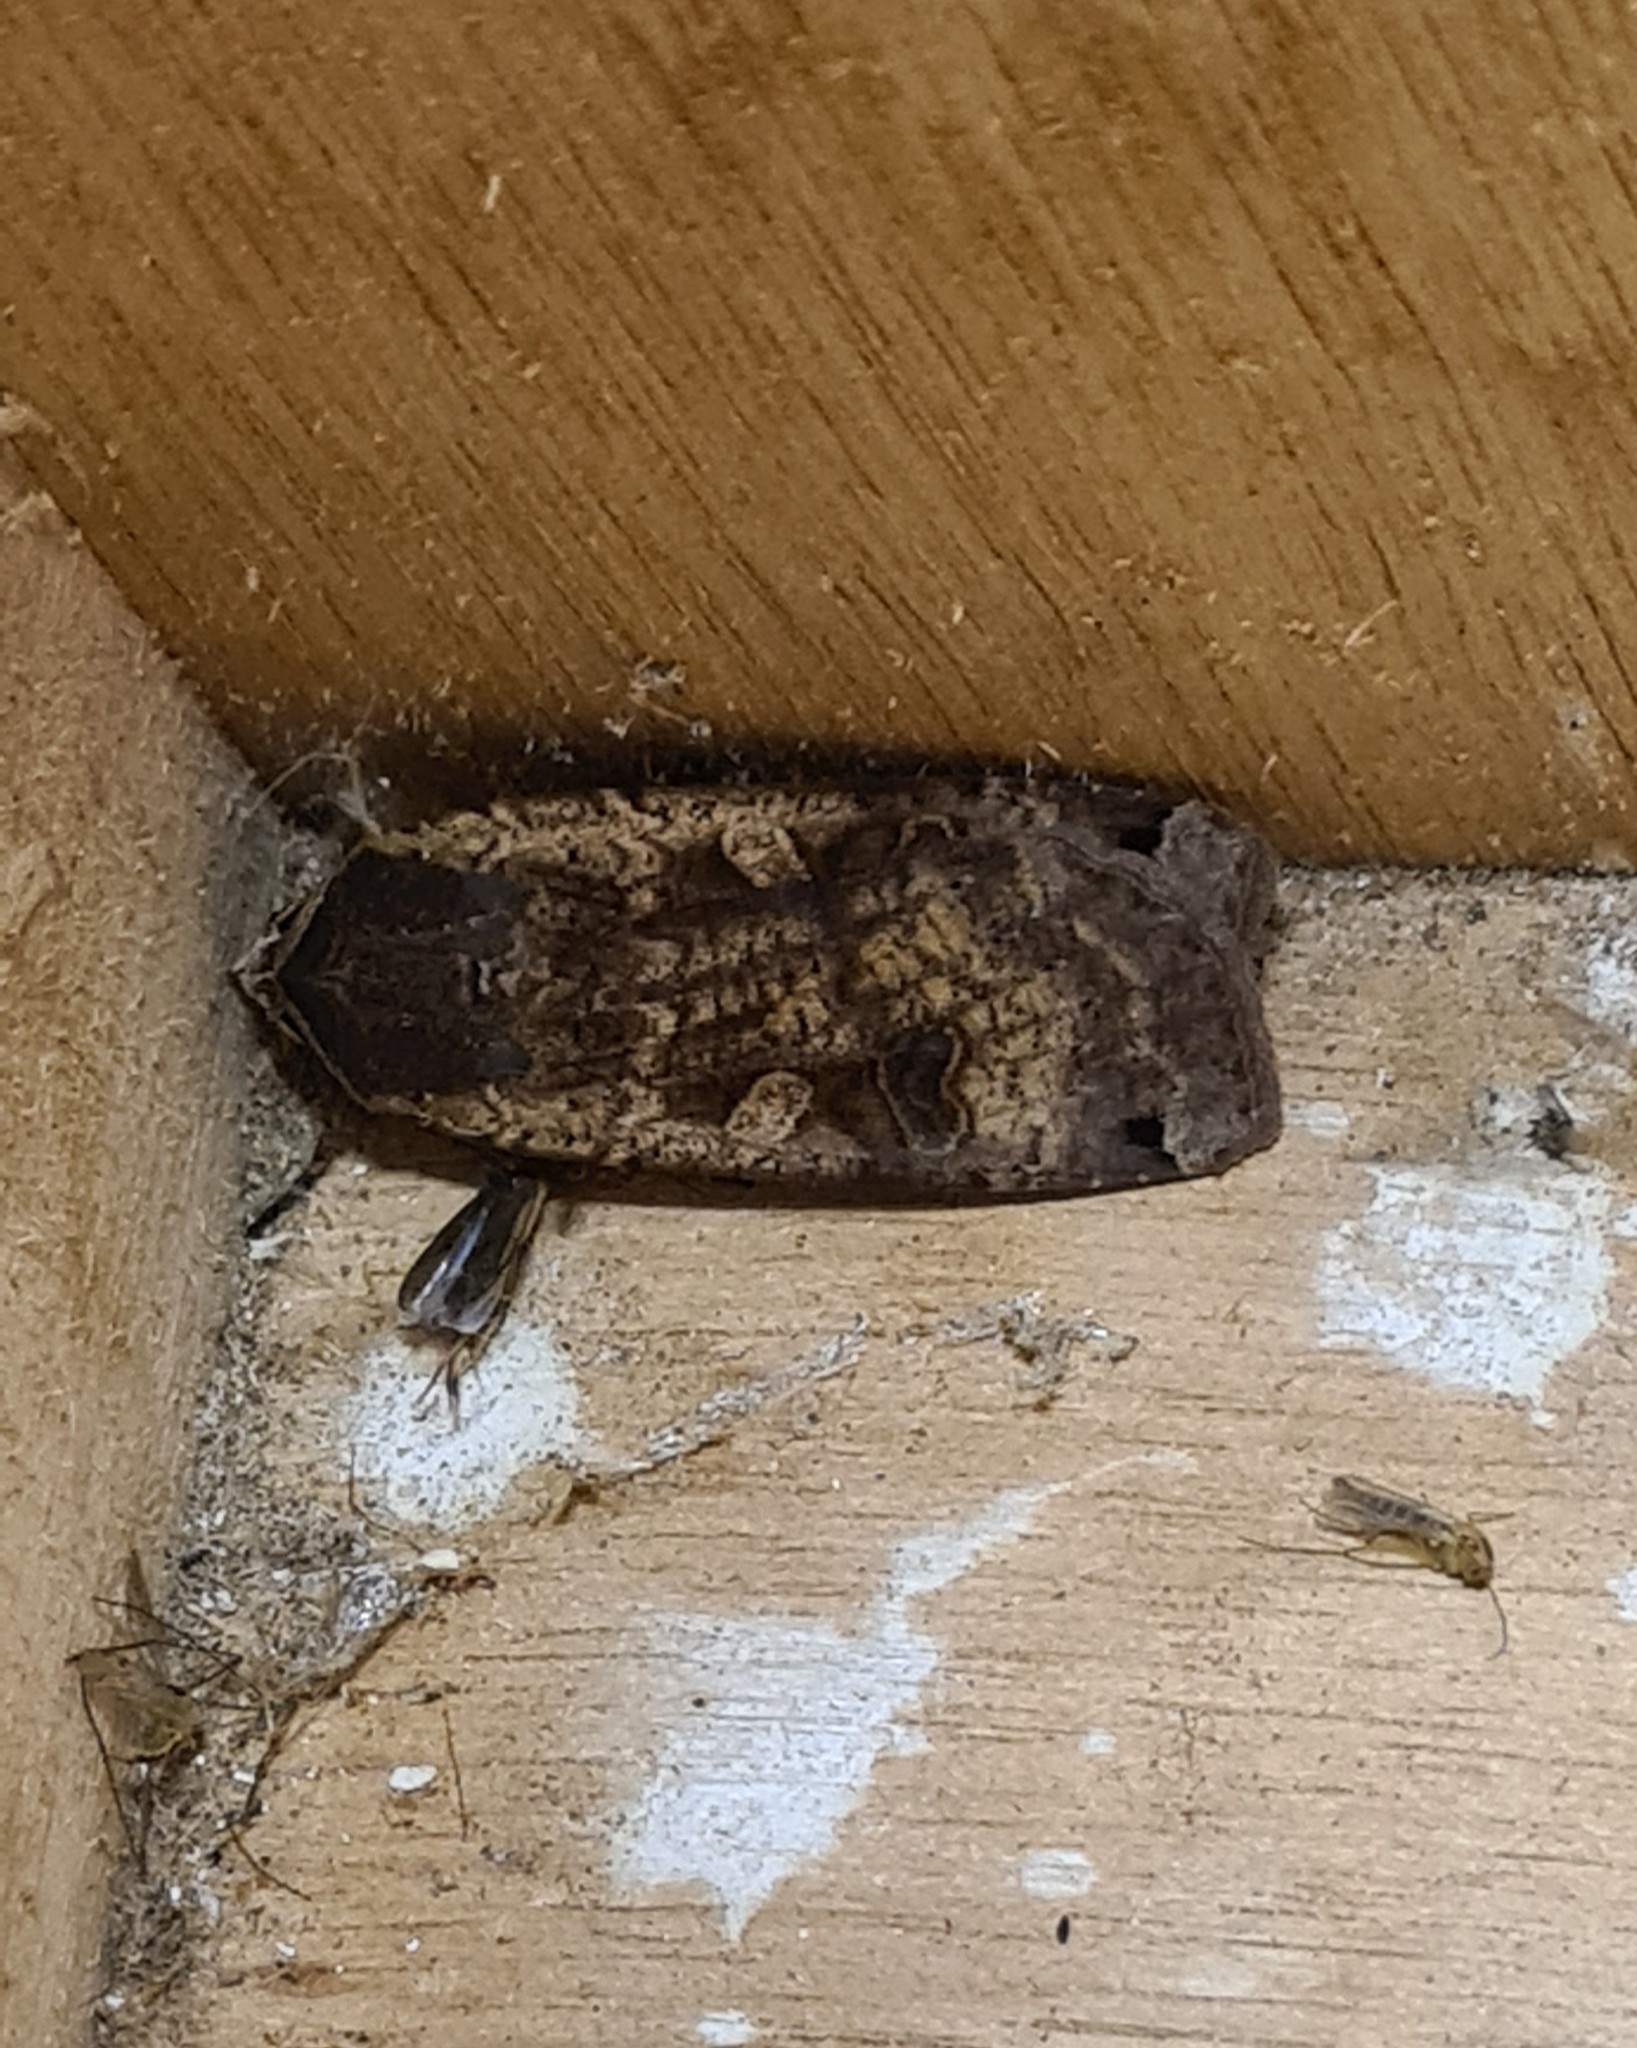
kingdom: Animalia
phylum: Arthropoda
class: Insecta
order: Lepidoptera
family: Noctuidae
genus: Noctua
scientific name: Noctua pronuba
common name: Large yellow underwing
